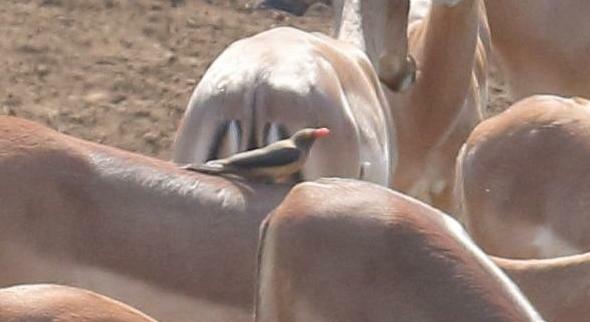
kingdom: Animalia
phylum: Chordata
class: Aves
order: Passeriformes
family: Buphagidae
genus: Buphagus
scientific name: Buphagus erythrorhynchus
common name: Red-billed oxpecker
